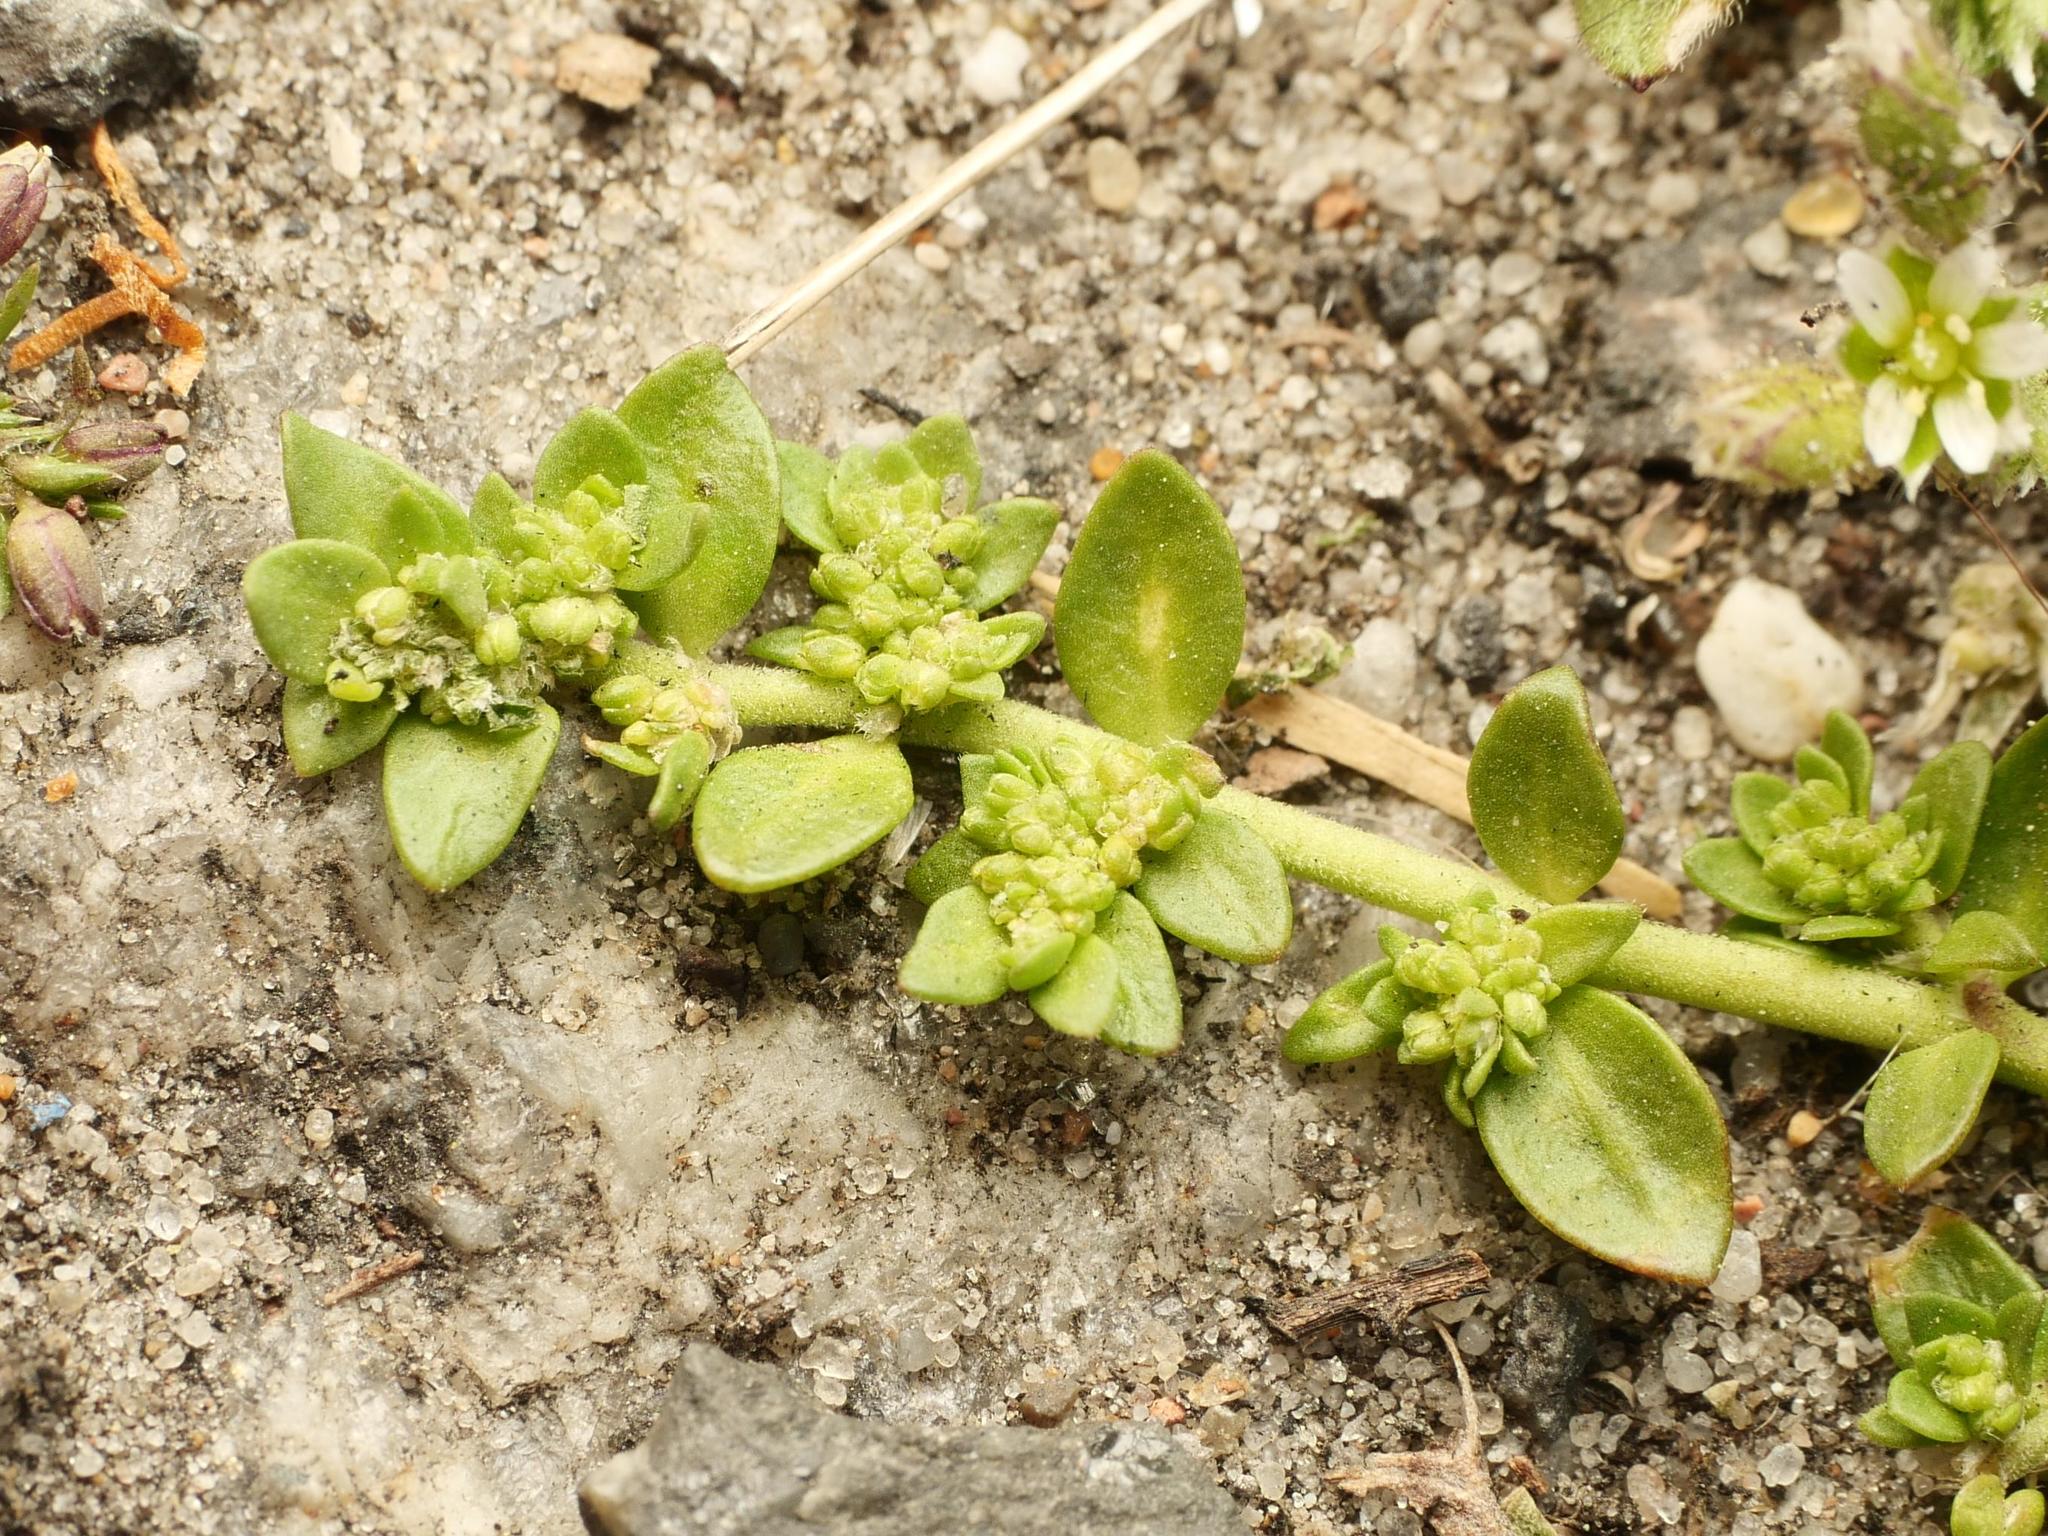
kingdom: Plantae
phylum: Tracheophyta
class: Magnoliopsida
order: Caryophyllales
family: Caryophyllaceae
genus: Herniaria
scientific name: Herniaria glabra
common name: Smooth rupturewort
